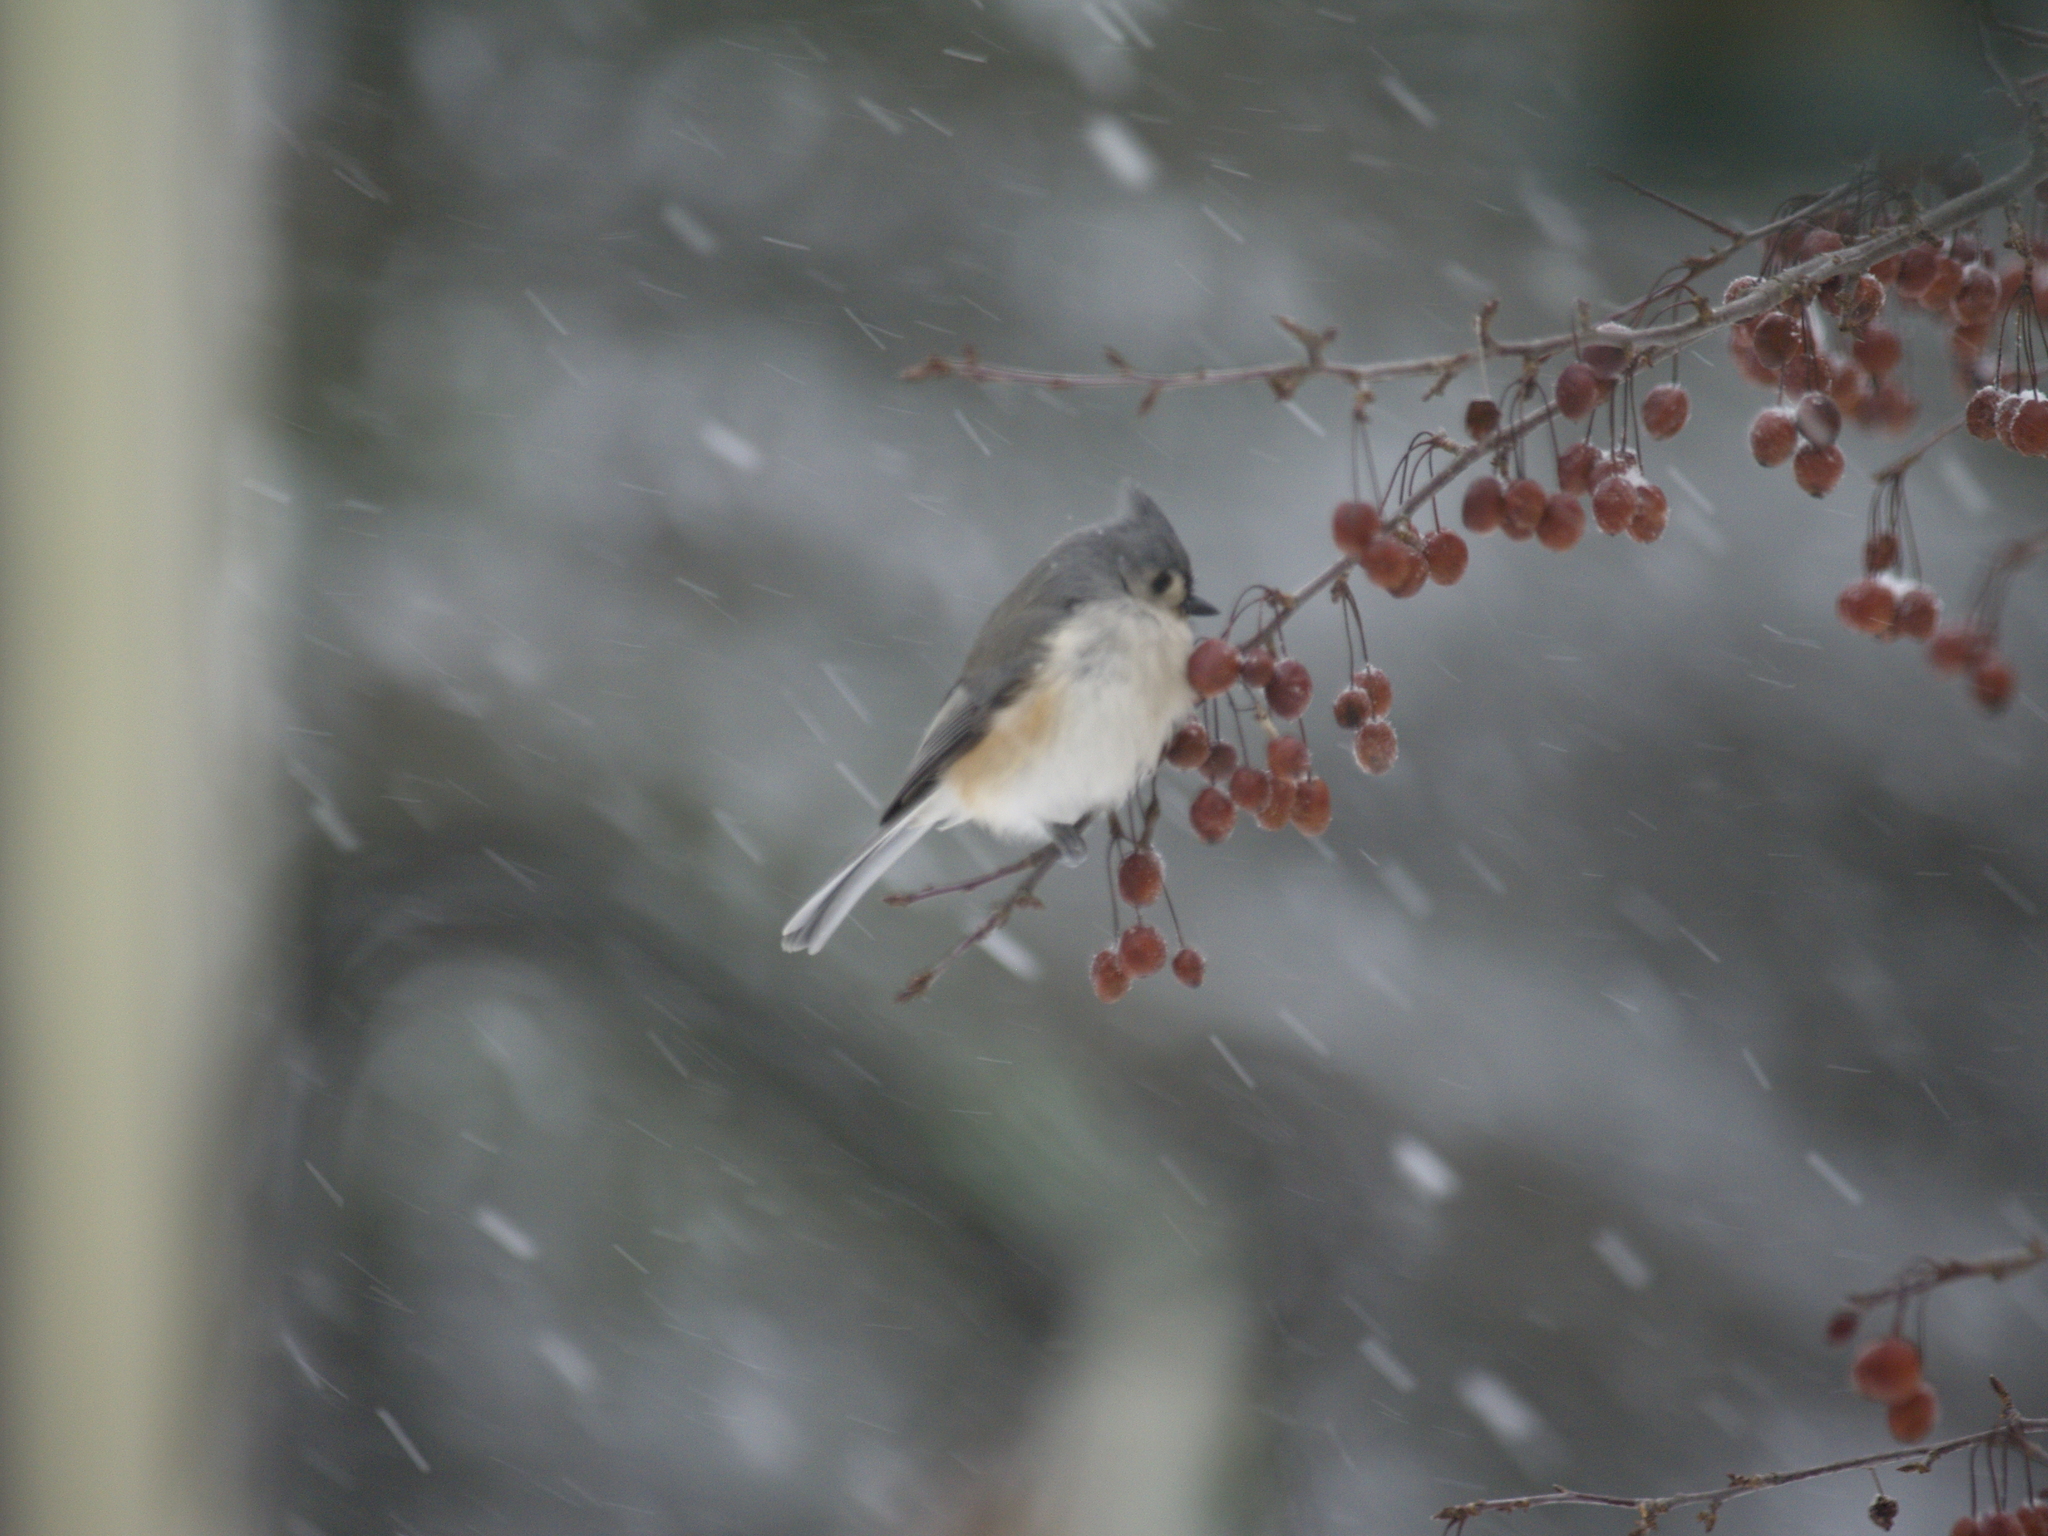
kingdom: Animalia
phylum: Chordata
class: Aves
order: Passeriformes
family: Paridae
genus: Baeolophus
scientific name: Baeolophus bicolor
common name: Tufted titmouse
